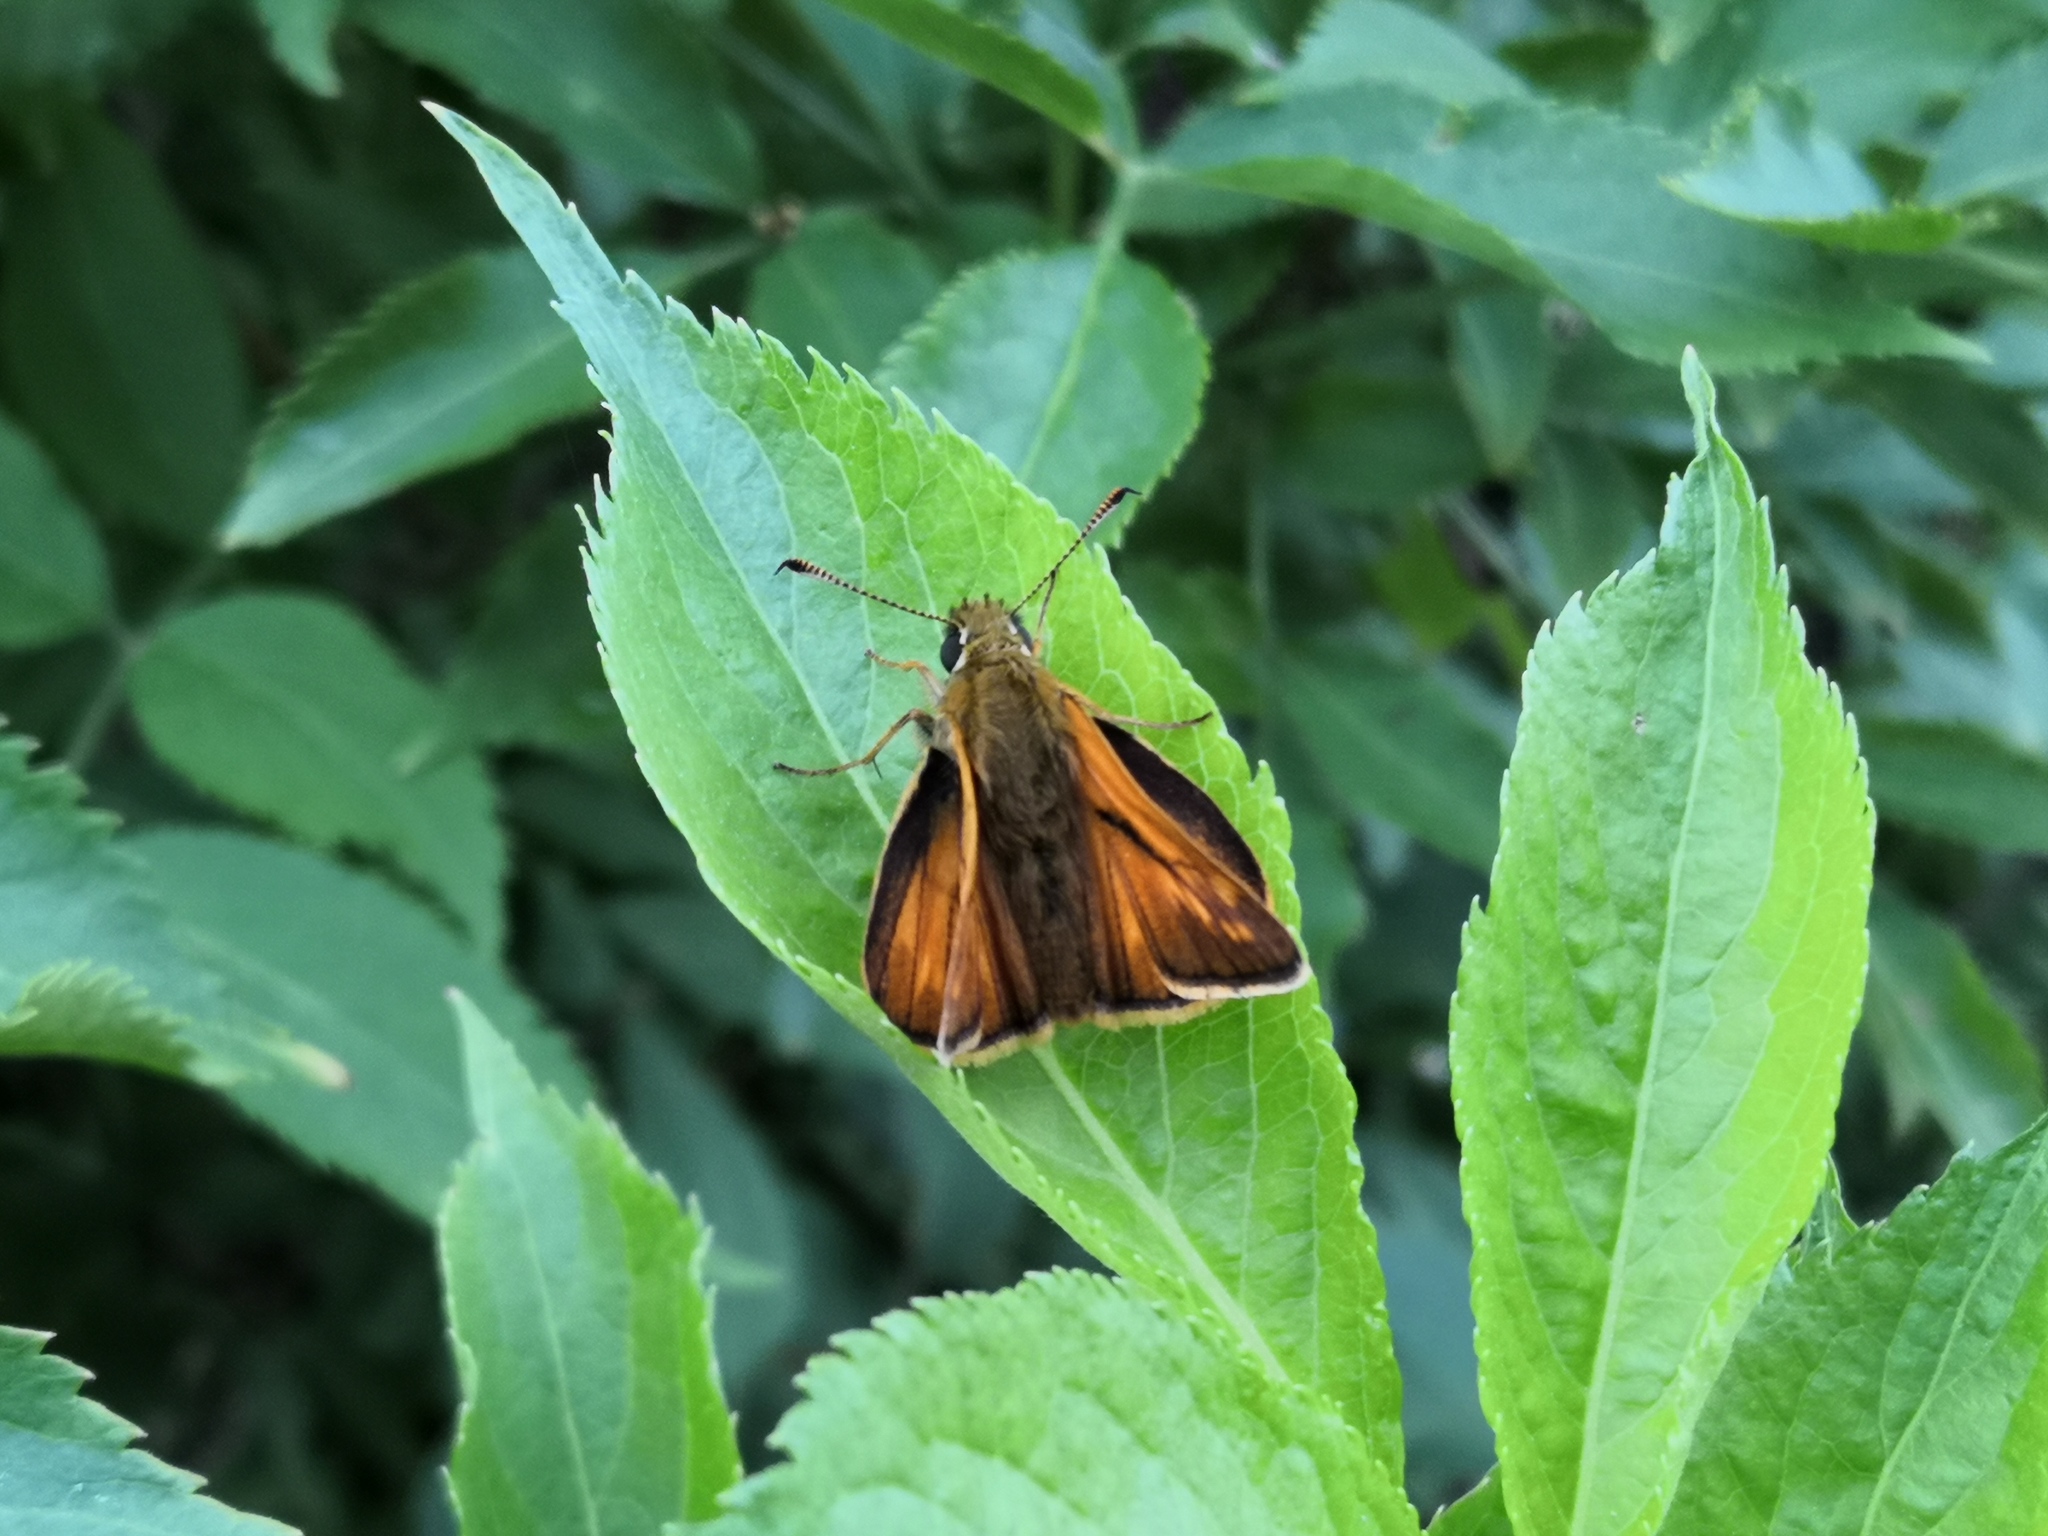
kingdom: Animalia
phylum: Arthropoda
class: Insecta
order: Lepidoptera
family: Hesperiidae
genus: Ochlodes
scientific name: Ochlodes venata
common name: Large skipper
